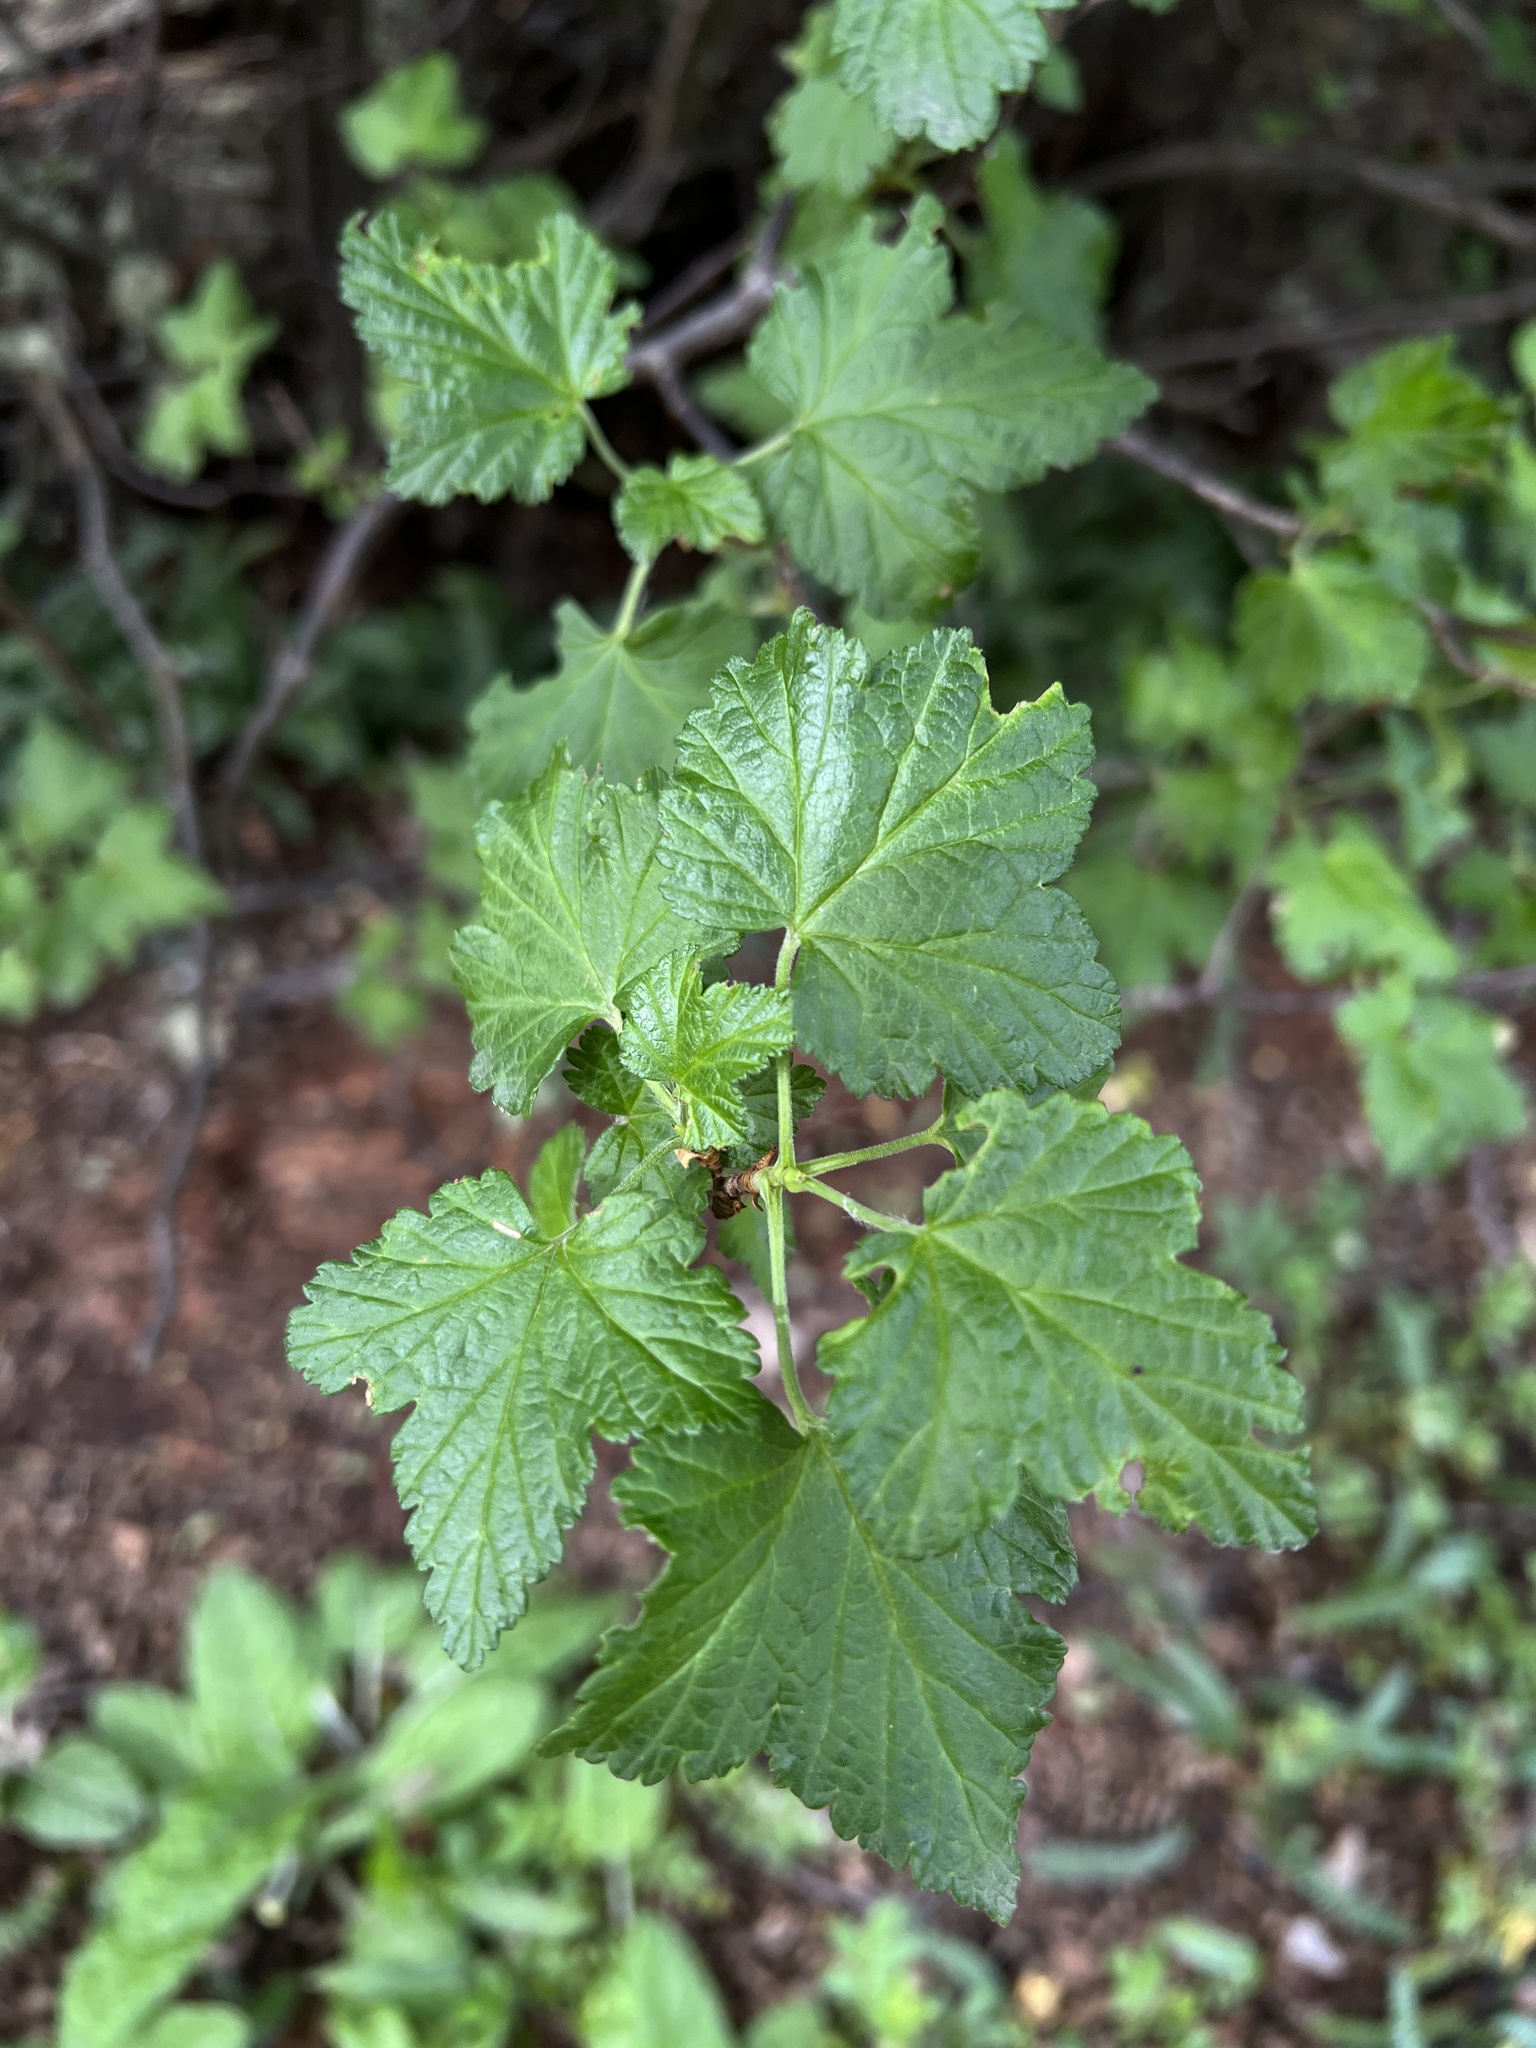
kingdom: Plantae
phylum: Tracheophyta
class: Magnoliopsida
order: Saxifragales
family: Grossulariaceae
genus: Ribes
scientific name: Ribes magellanicum
